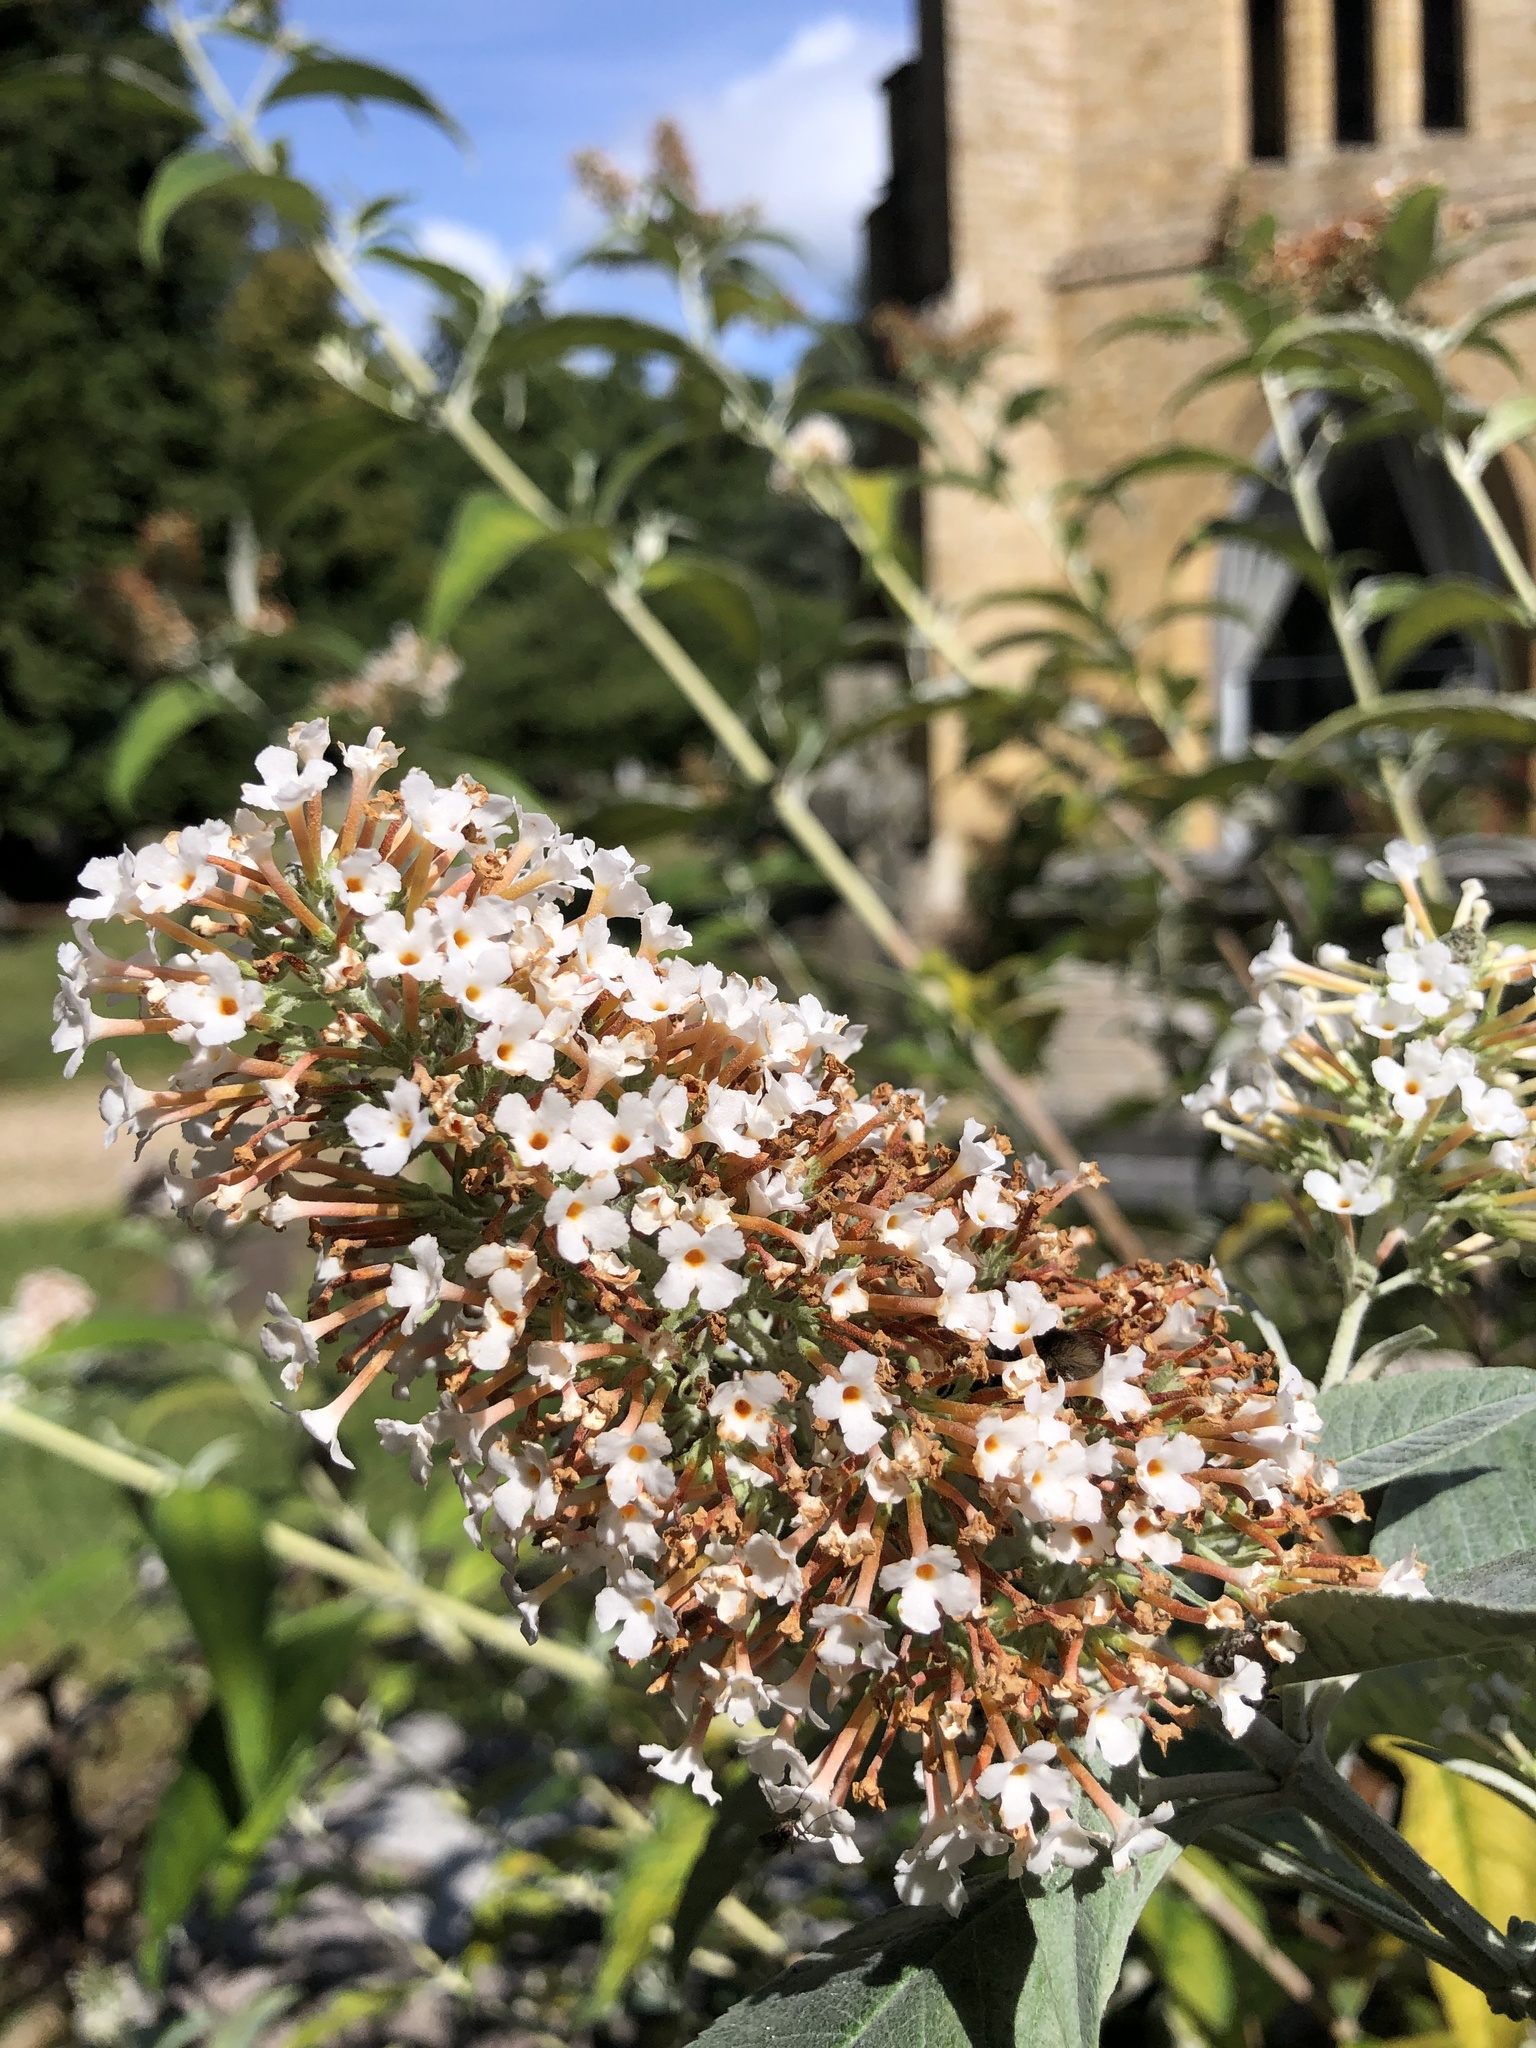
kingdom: Plantae
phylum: Tracheophyta
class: Magnoliopsida
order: Lamiales
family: Scrophulariaceae
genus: Buddleja
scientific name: Buddleja davidii
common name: Butterfly-bush
